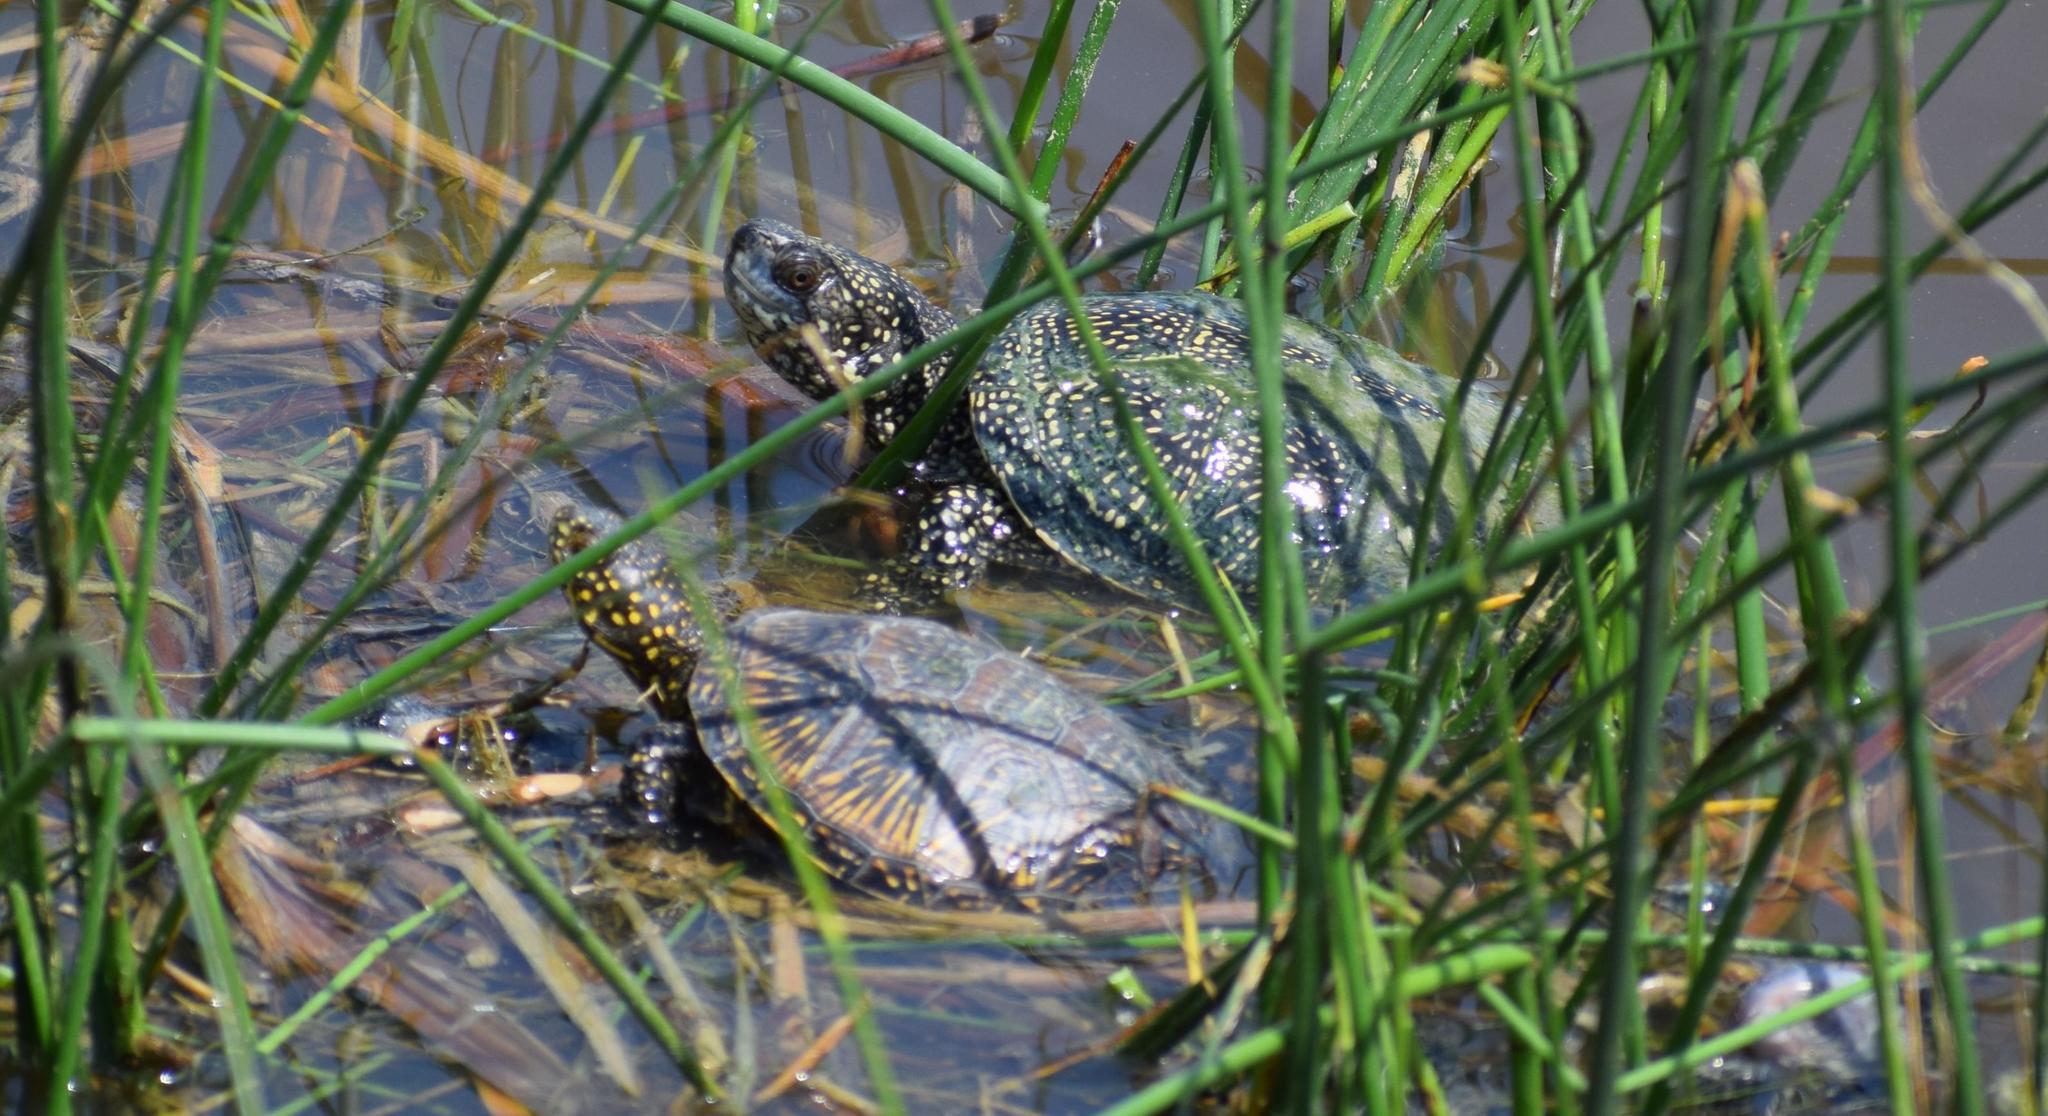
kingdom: Animalia
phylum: Chordata
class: Testudines
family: Emydidae
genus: Emys
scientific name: Emys orbicularis
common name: European pond turtle
